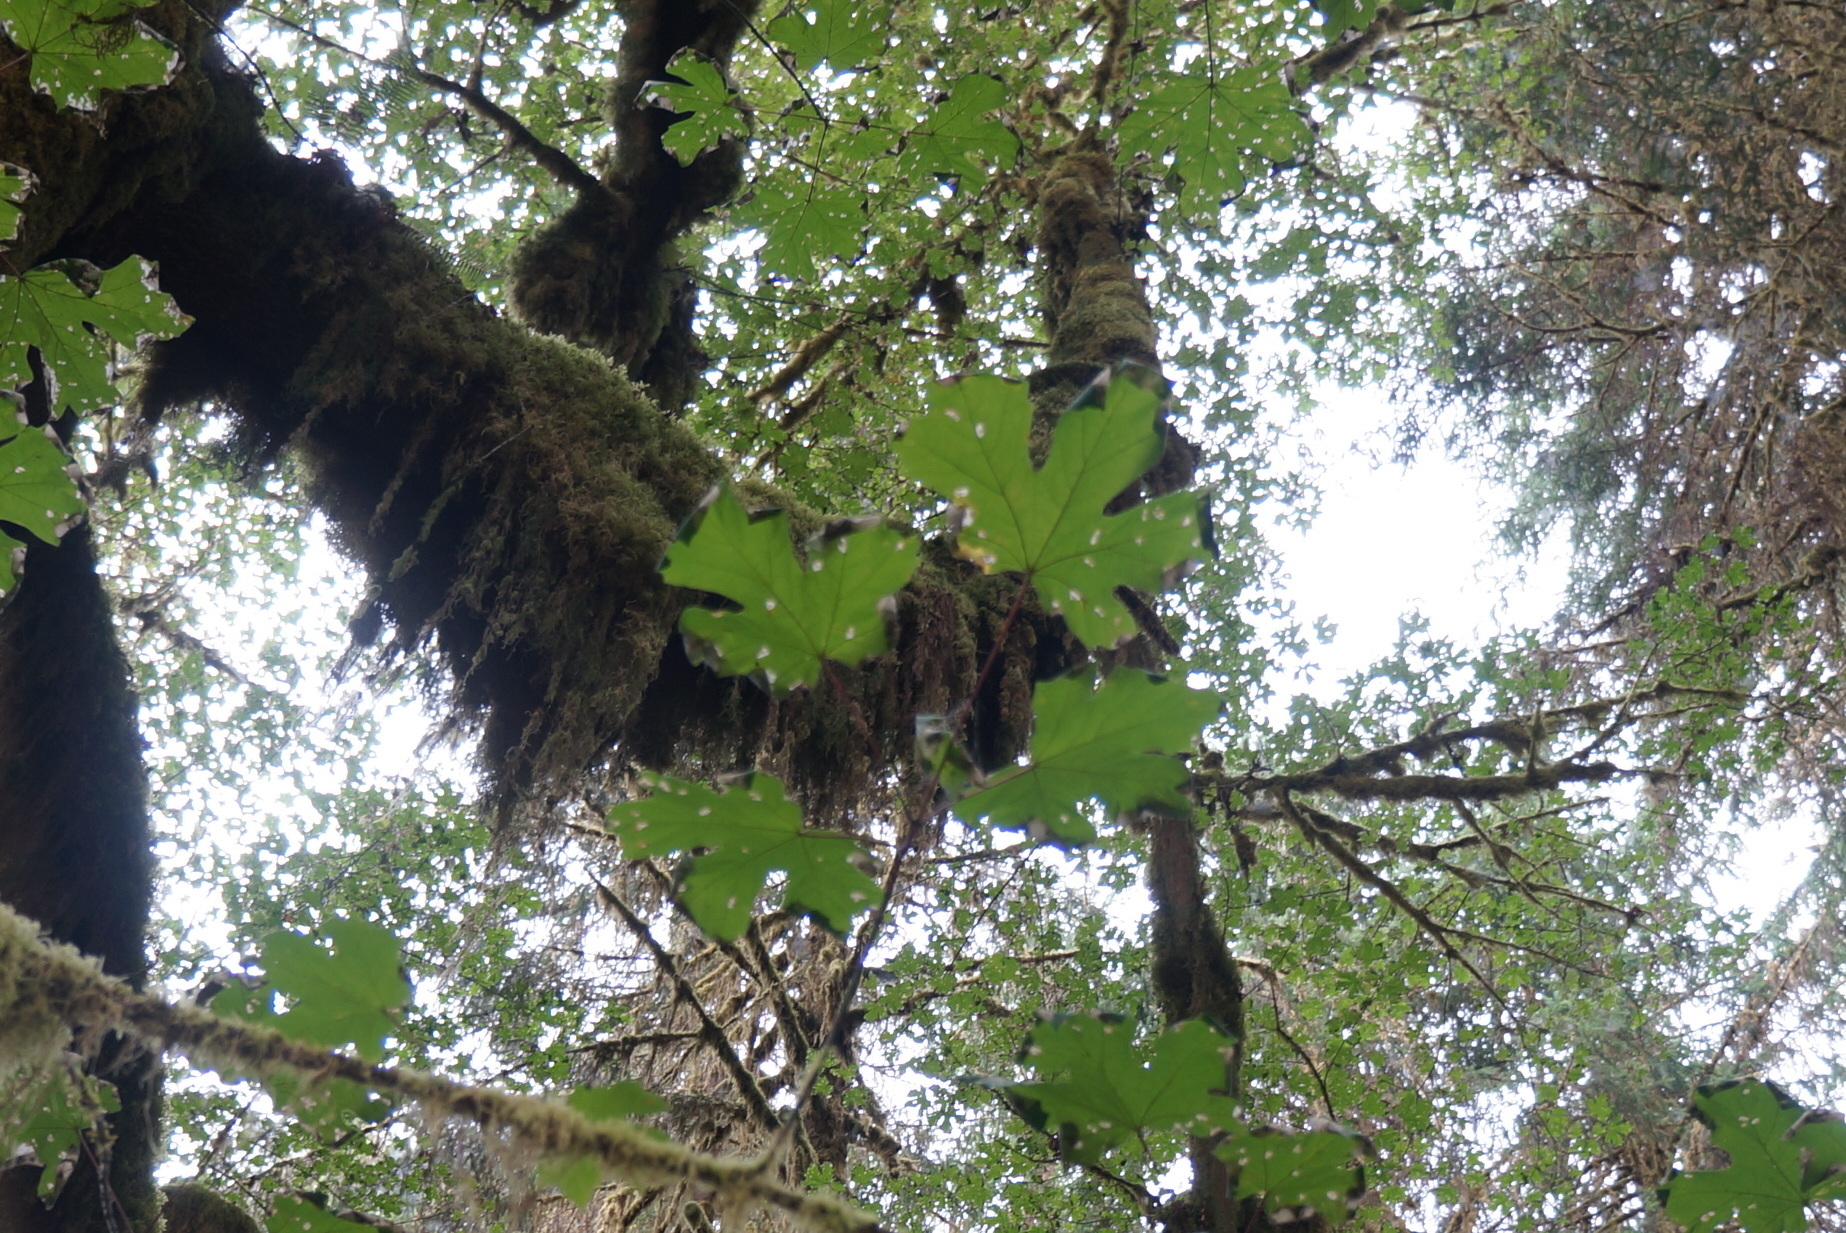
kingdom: Plantae
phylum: Tracheophyta
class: Magnoliopsida
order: Sapindales
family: Sapindaceae
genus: Acer
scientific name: Acer macrophyllum
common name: Oregon maple
